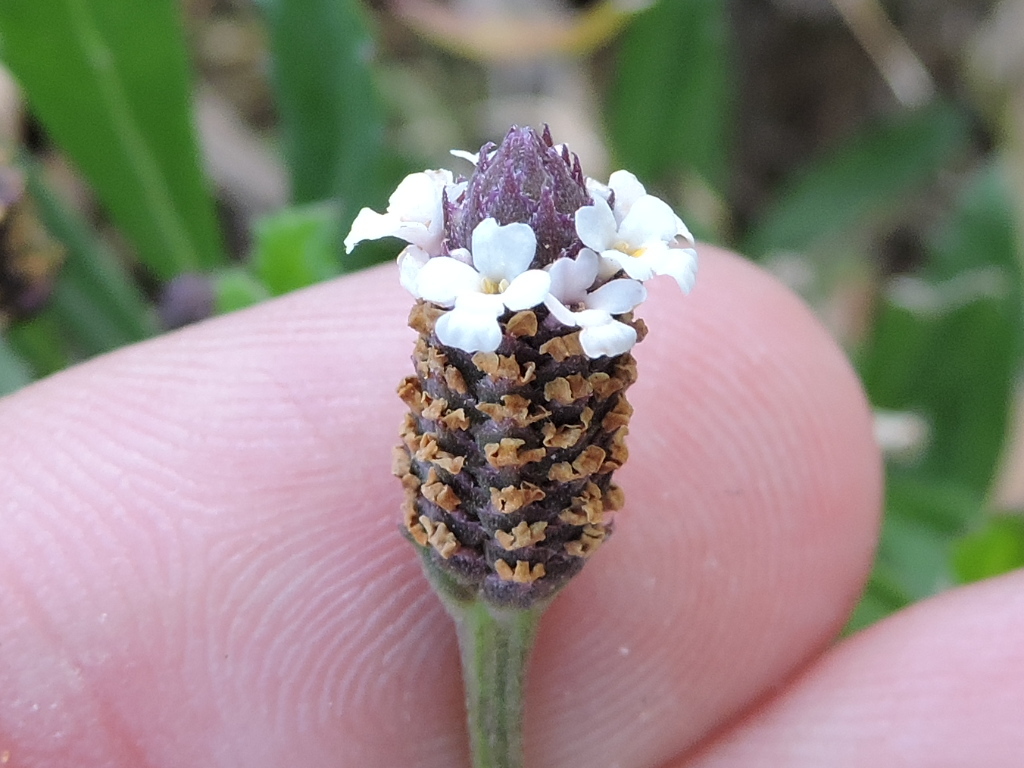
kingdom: Plantae
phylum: Tracheophyta
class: Magnoliopsida
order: Lamiales
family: Verbenaceae
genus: Phyla
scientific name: Phyla nodiflora
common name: Frogfruit
